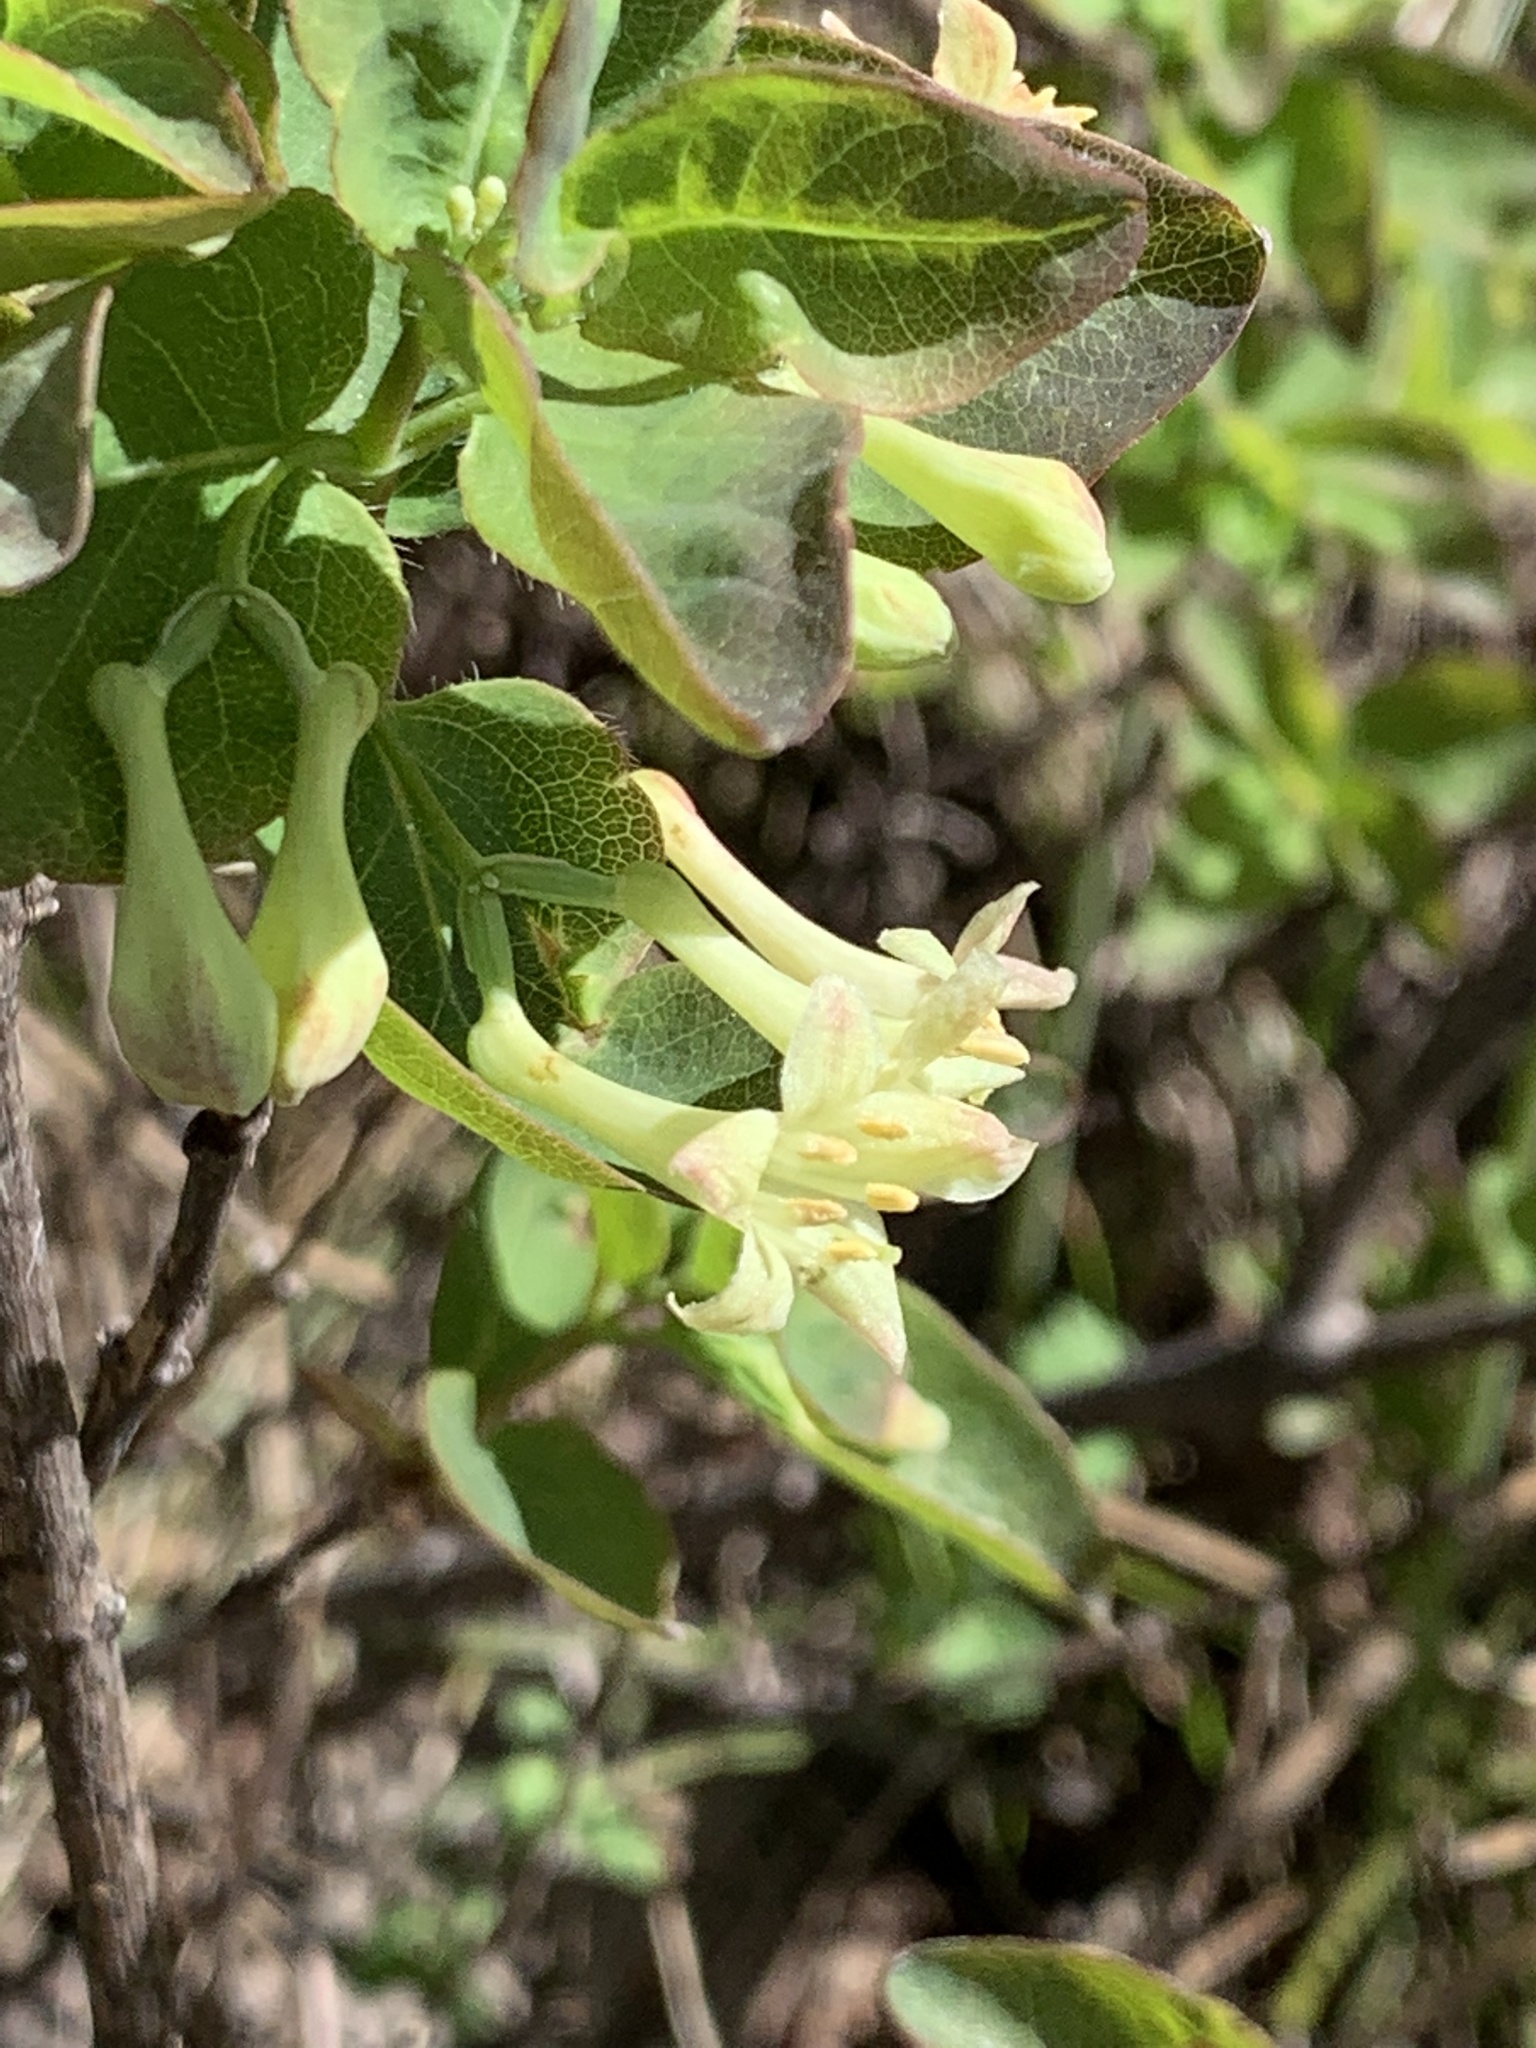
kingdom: Plantae
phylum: Tracheophyta
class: Magnoliopsida
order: Dipsacales
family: Caprifoliaceae
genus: Lonicera
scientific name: Lonicera utahensis
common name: Utah honeysuckle
